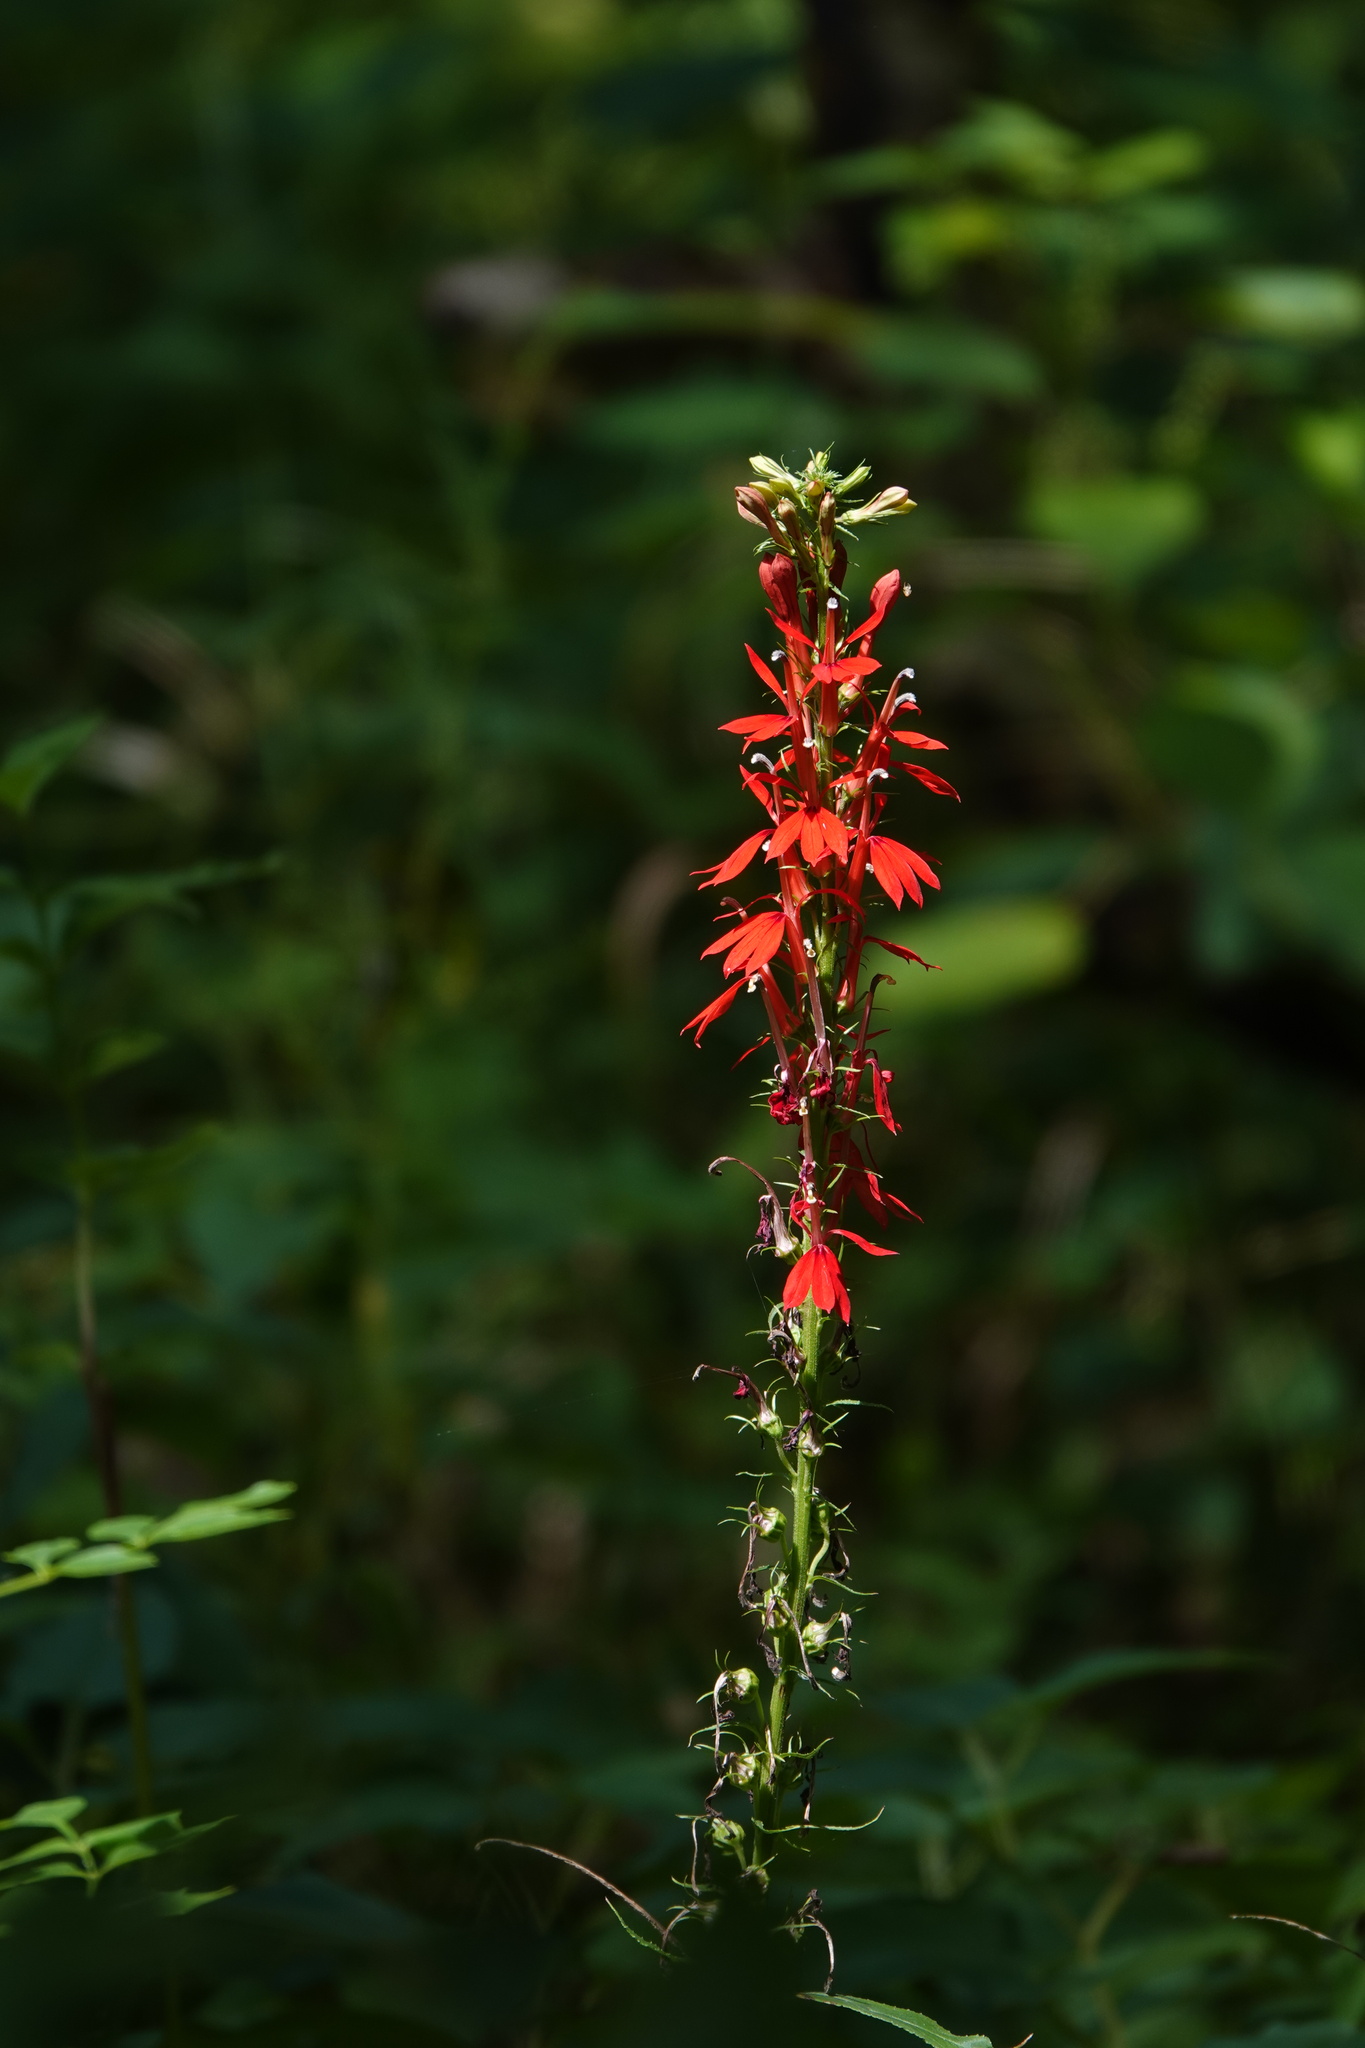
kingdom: Plantae
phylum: Tracheophyta
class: Magnoliopsida
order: Asterales
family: Campanulaceae
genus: Lobelia
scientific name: Lobelia cardinalis
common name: Cardinal flower
